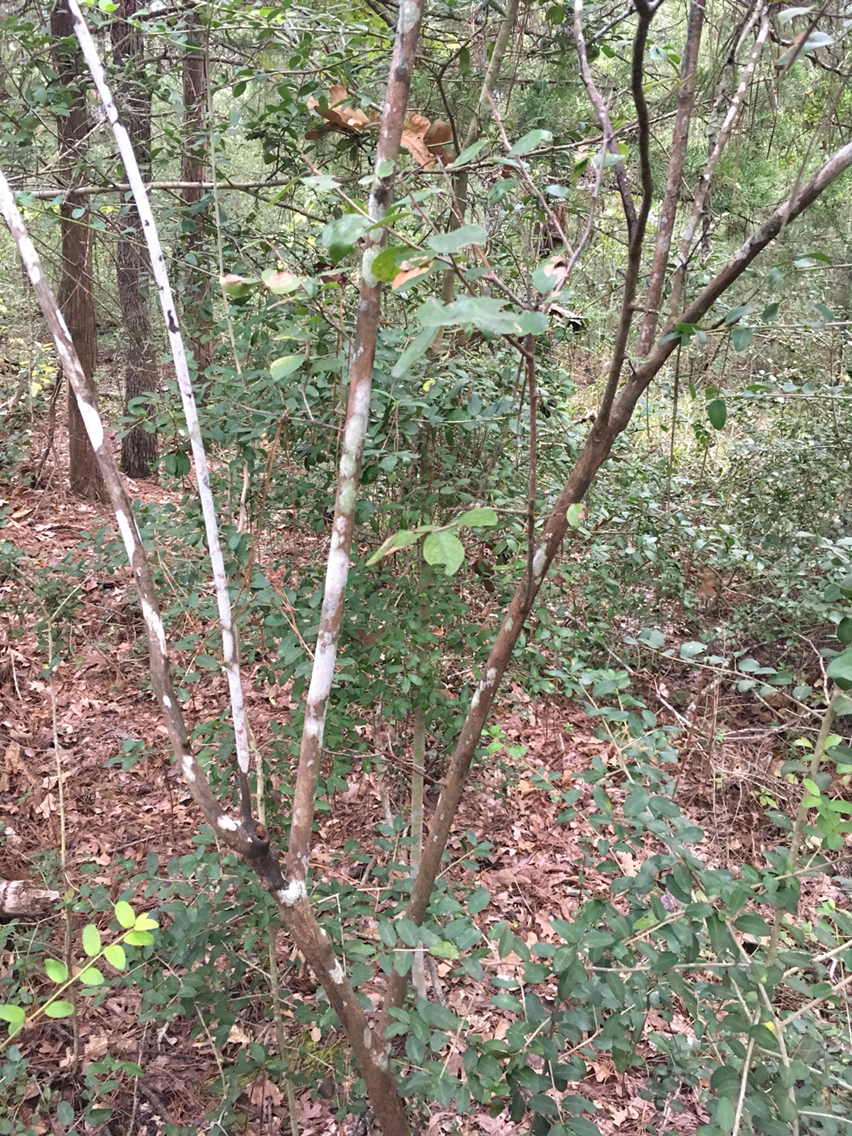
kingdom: Plantae
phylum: Tracheophyta
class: Magnoliopsida
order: Ericales
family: Ericaceae
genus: Vaccinium
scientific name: Vaccinium arboreum
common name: Farkleberry
